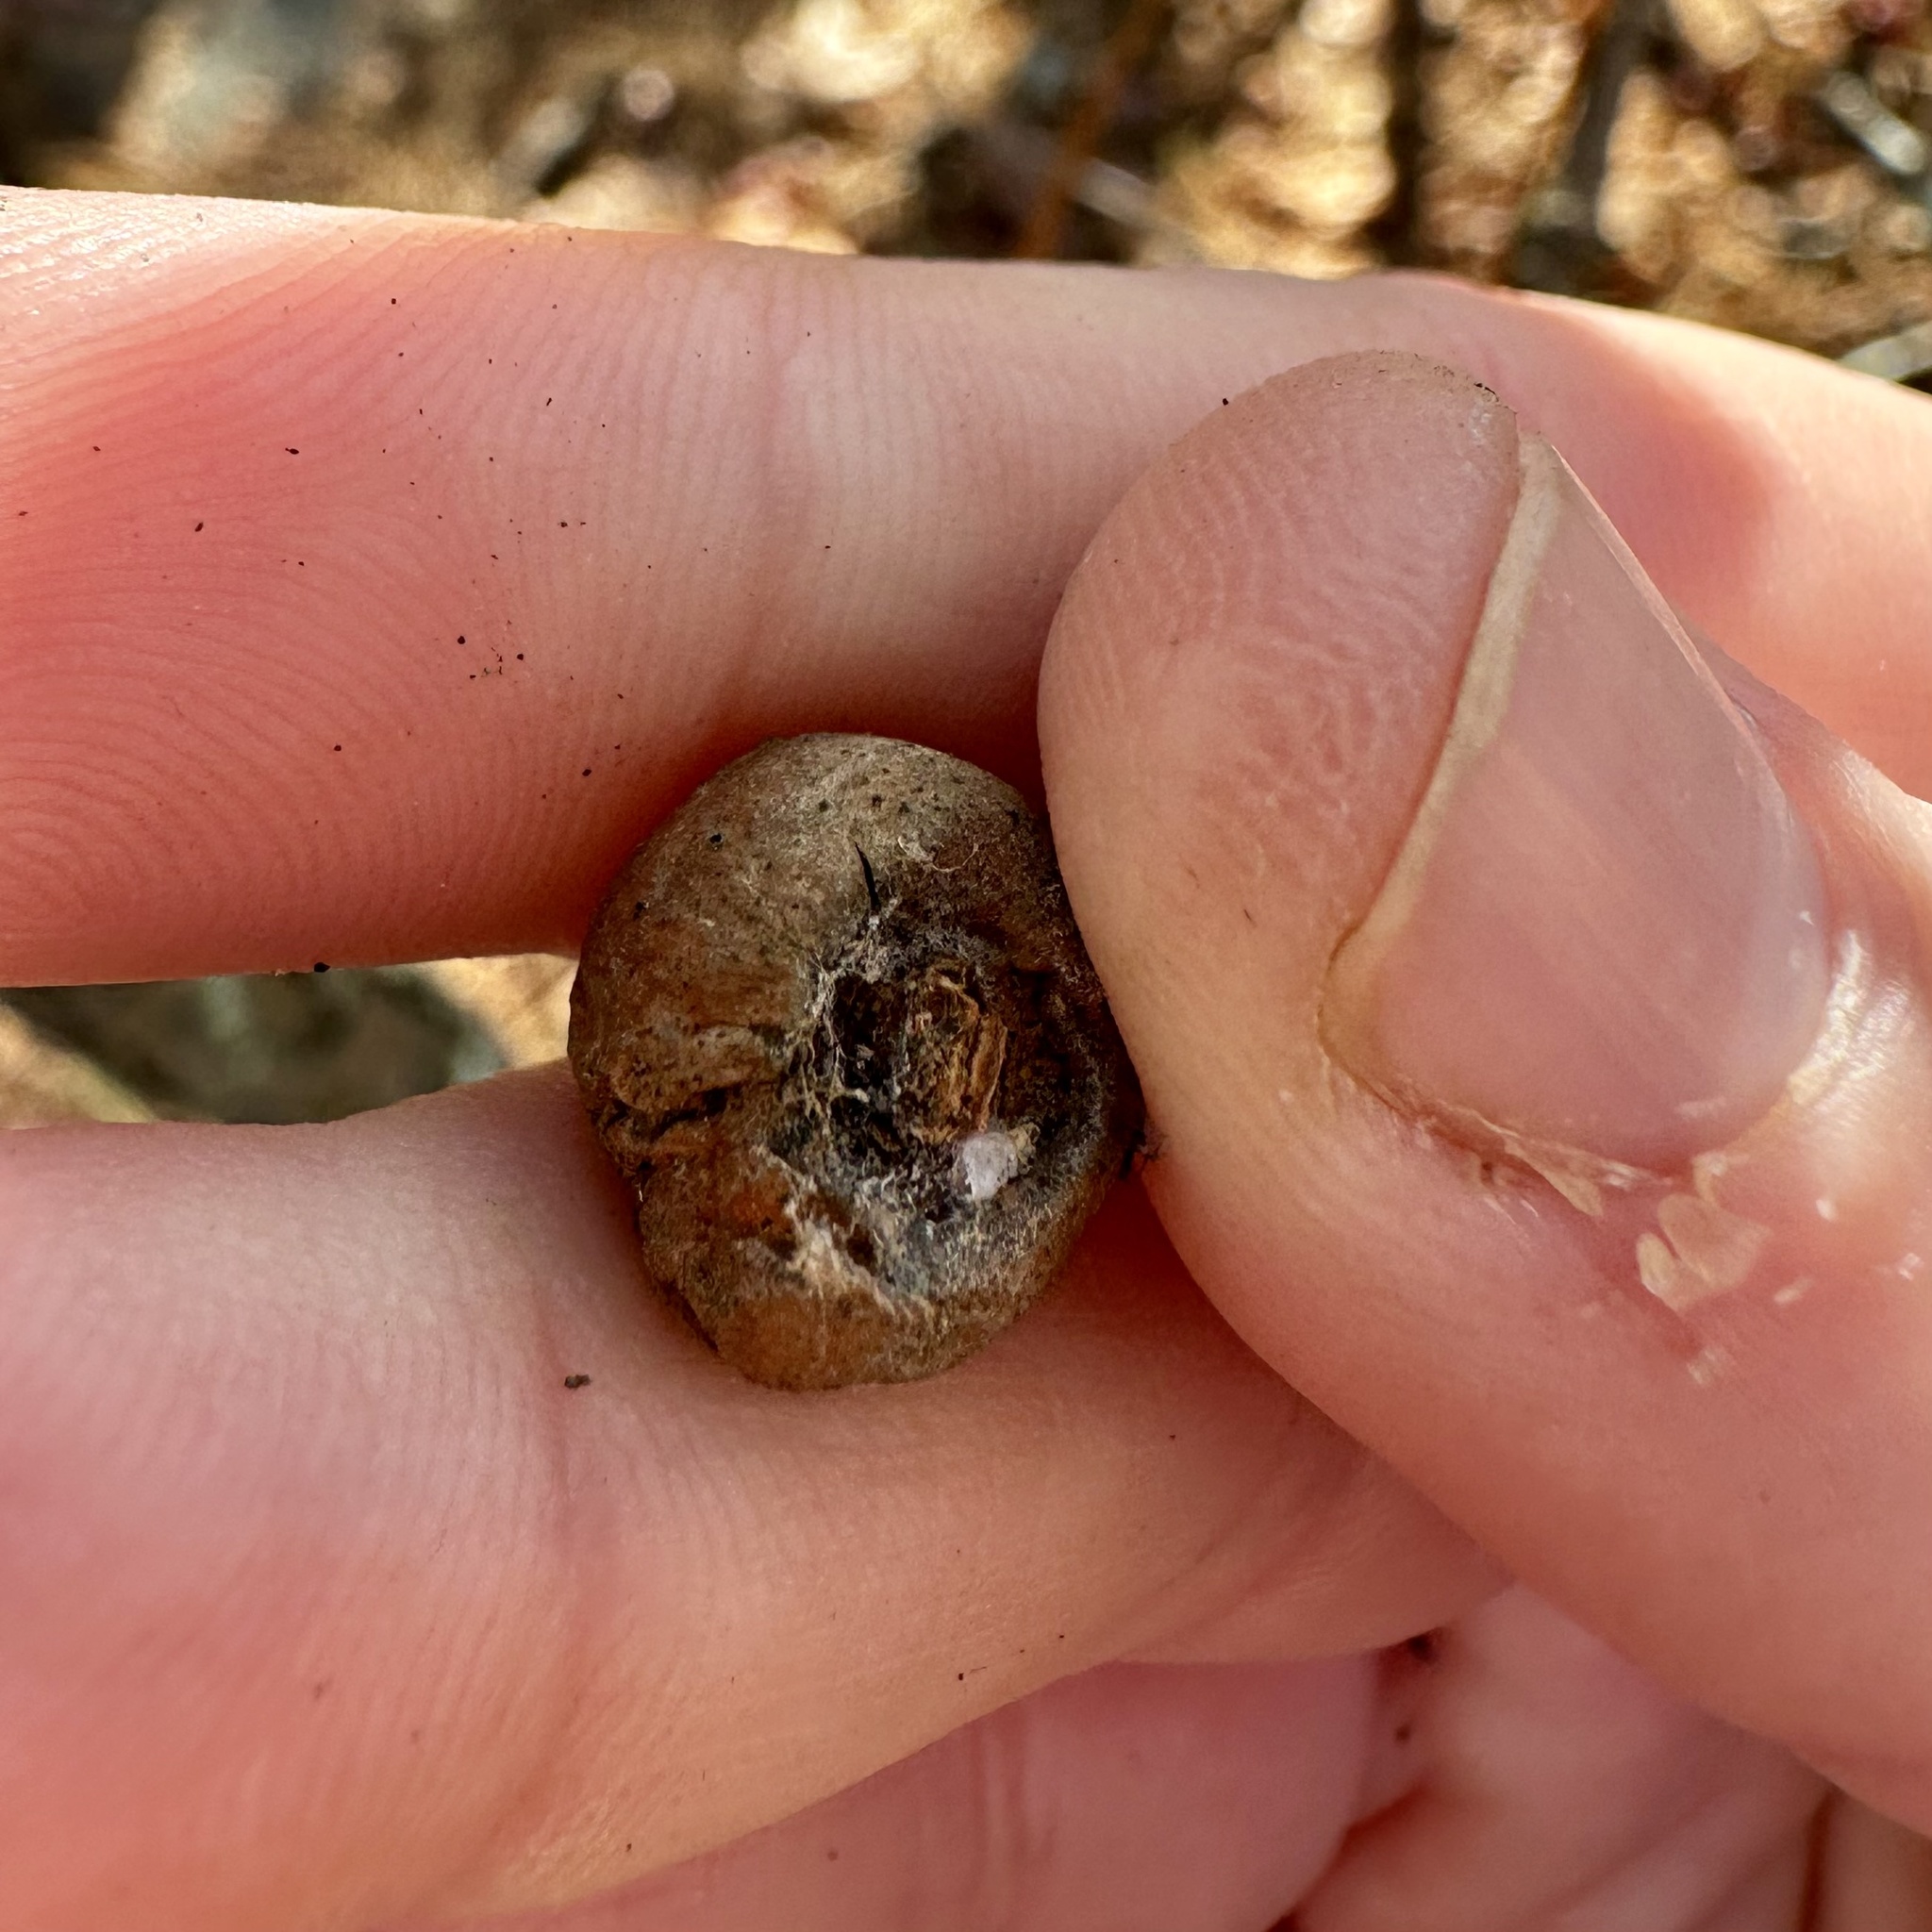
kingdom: Animalia
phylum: Arthropoda
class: Insecta
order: Hymenoptera
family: Cynipidae
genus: Disholcaspis
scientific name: Disholcaspis quercusglobulus
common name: Round bullet gall wasp
